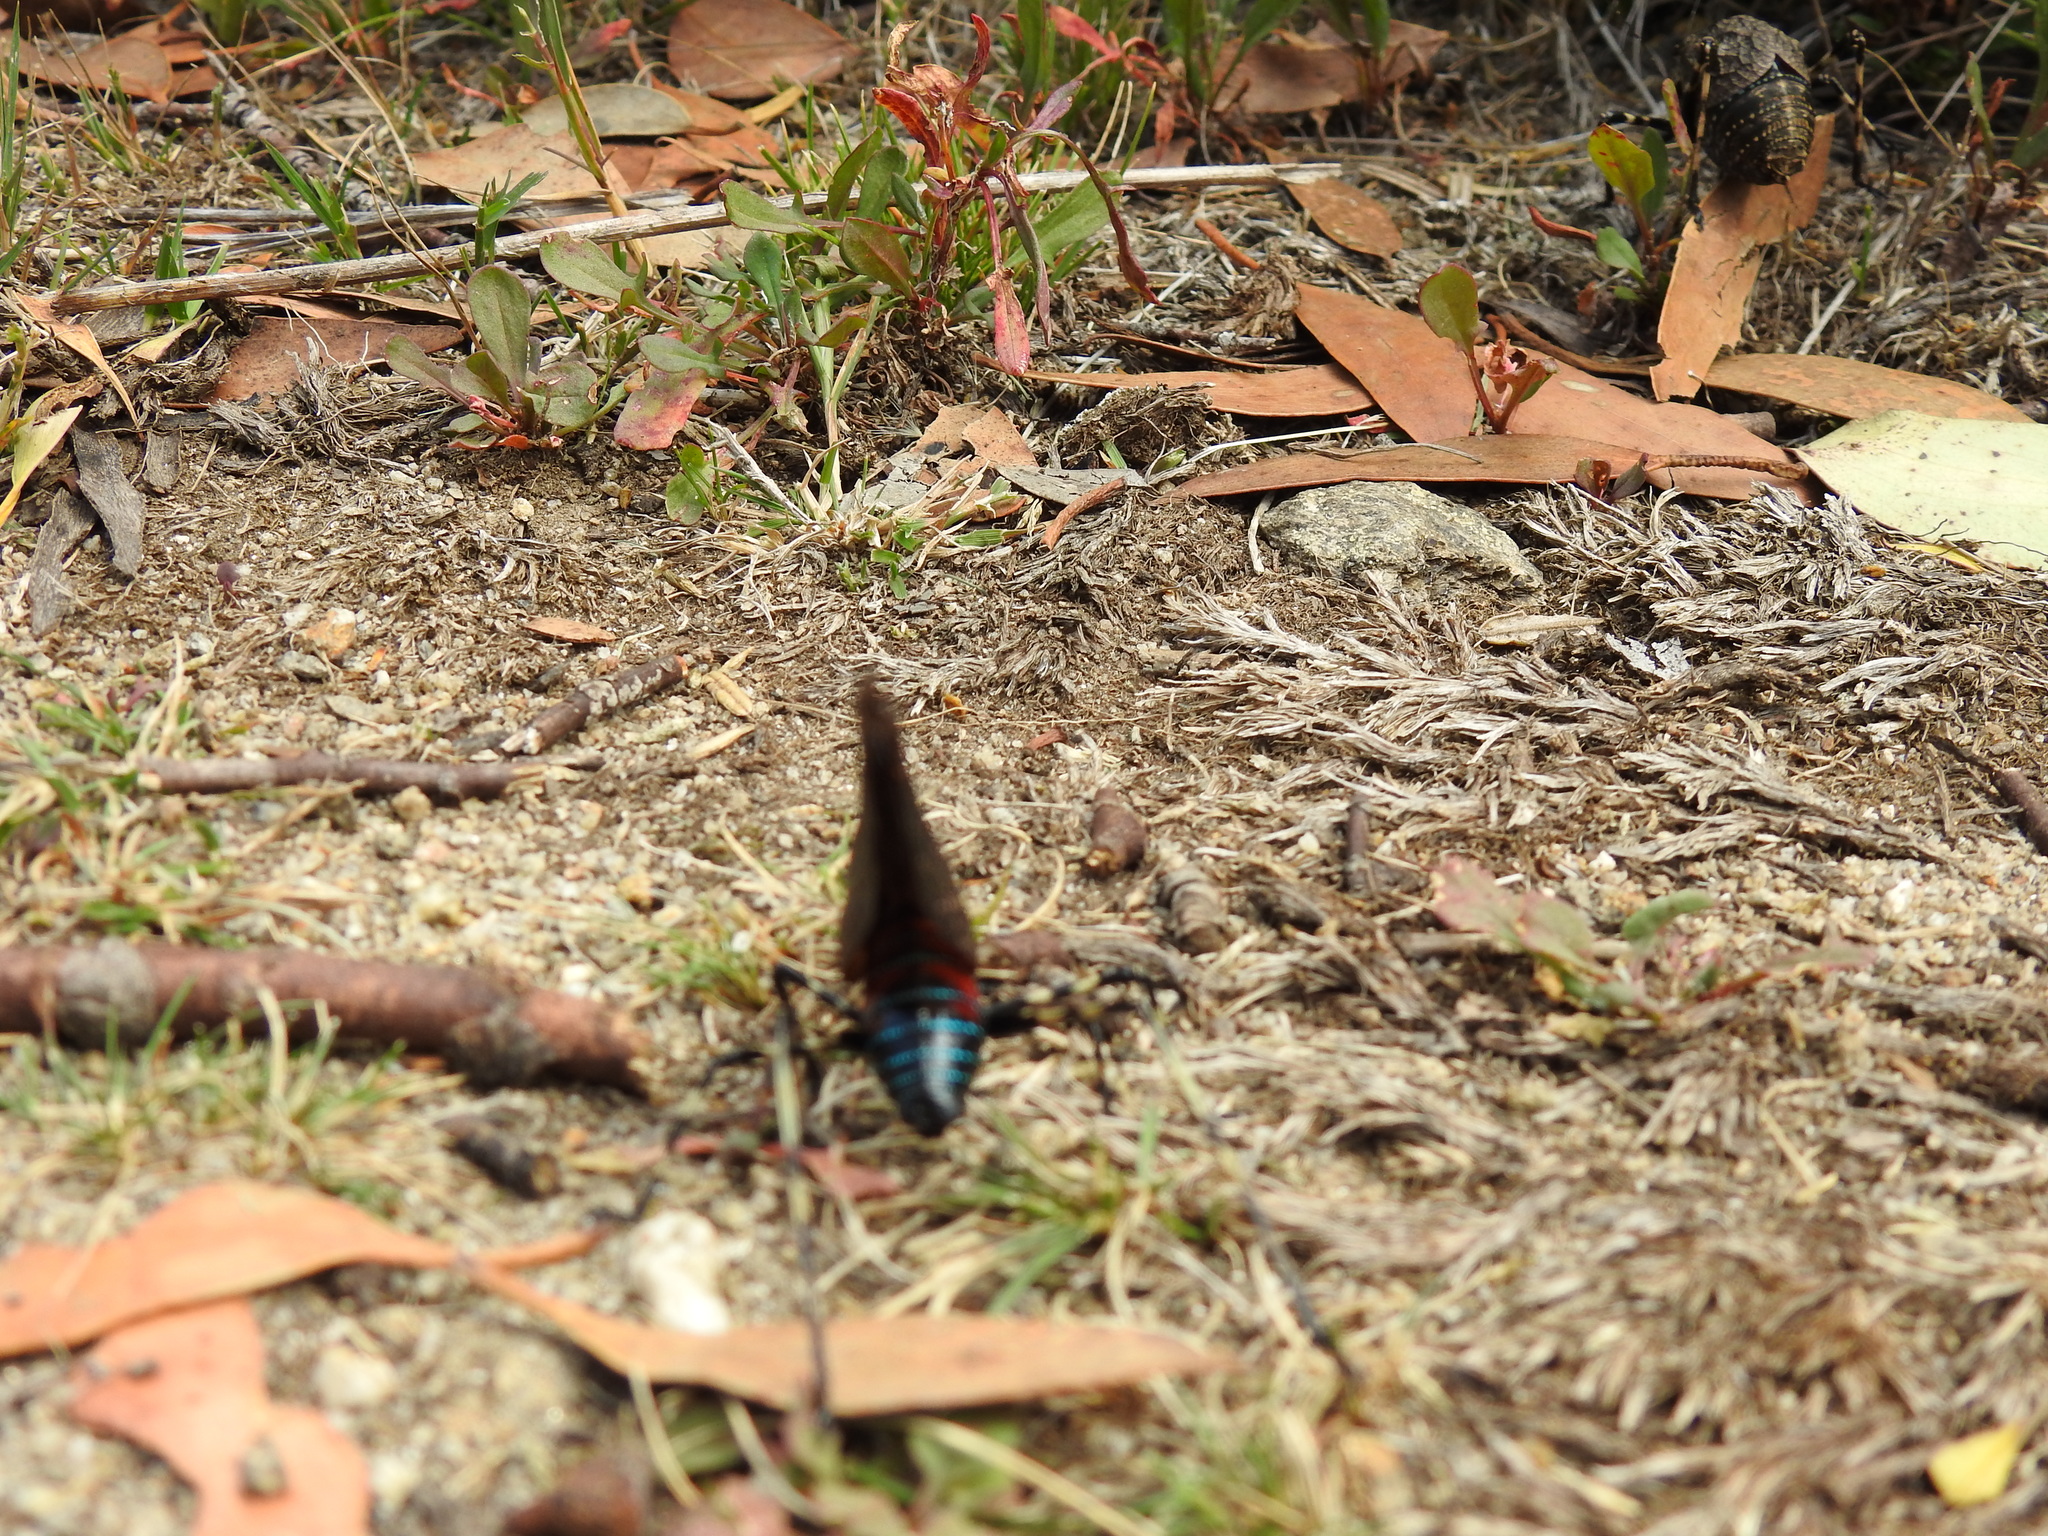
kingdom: Animalia
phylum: Arthropoda
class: Insecta
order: Orthoptera
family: Tettigoniidae
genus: Acripeza
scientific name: Acripeza reticulata
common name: Mountain katydid
